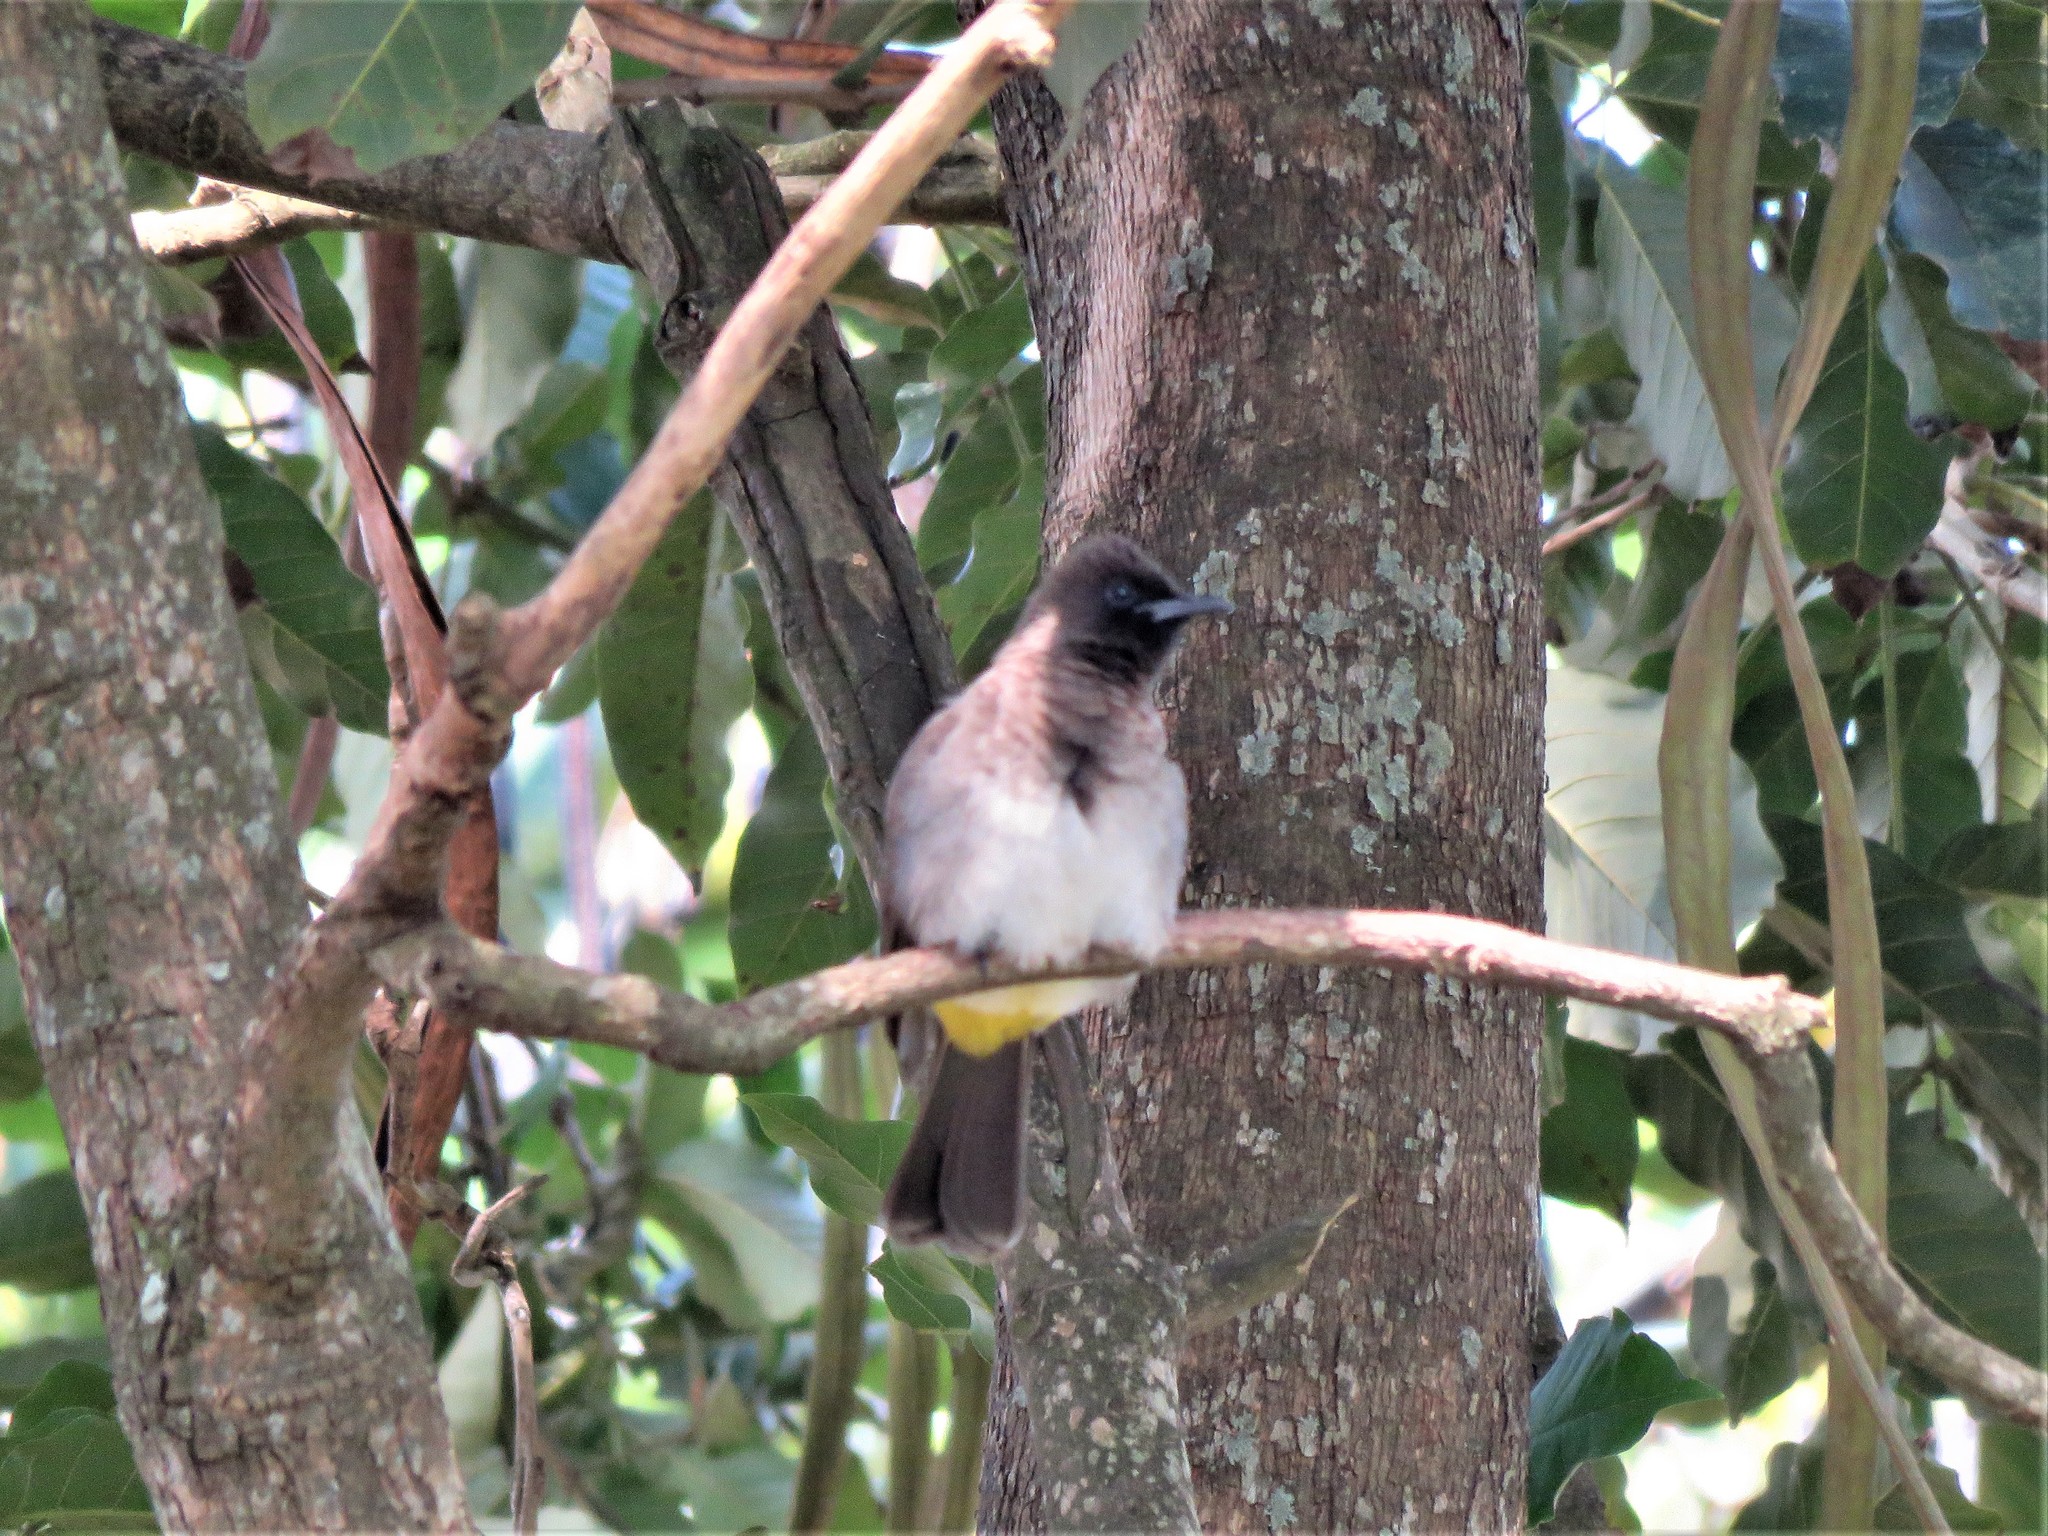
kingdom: Animalia
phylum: Chordata
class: Aves
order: Passeriformes
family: Pycnonotidae
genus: Pycnonotus
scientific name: Pycnonotus barbatus
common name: Common bulbul
